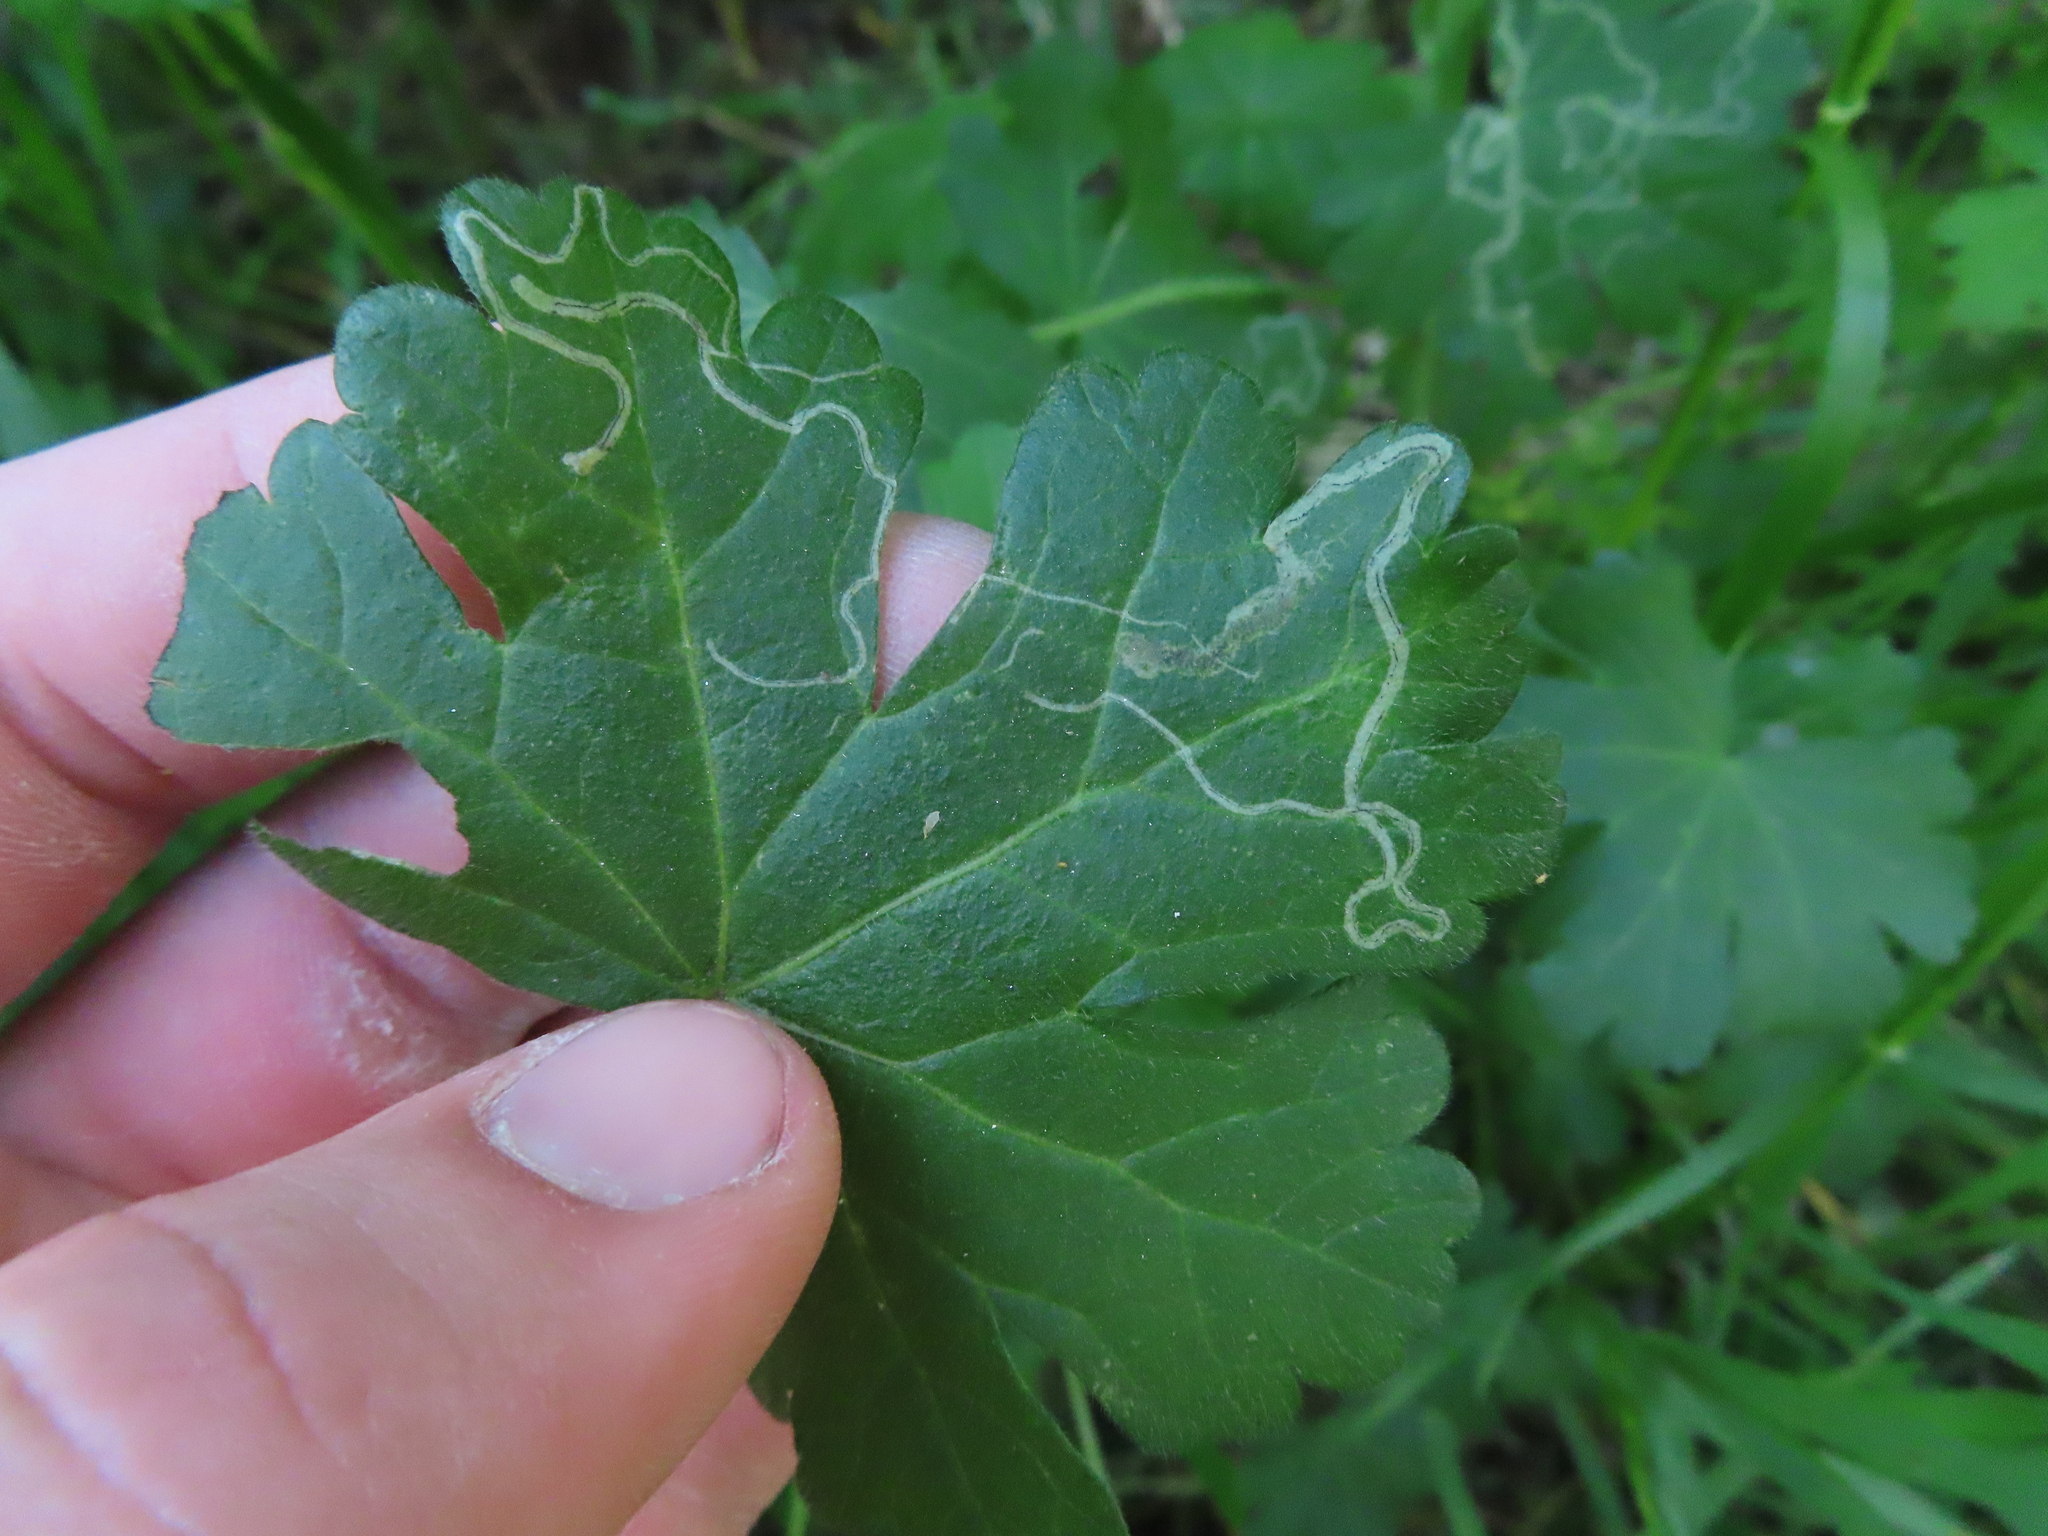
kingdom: Animalia
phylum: Arthropoda
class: Insecta
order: Diptera
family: Agromyzidae
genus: Calycomyza
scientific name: Calycomyza malvae
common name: Mallow leaf miner
